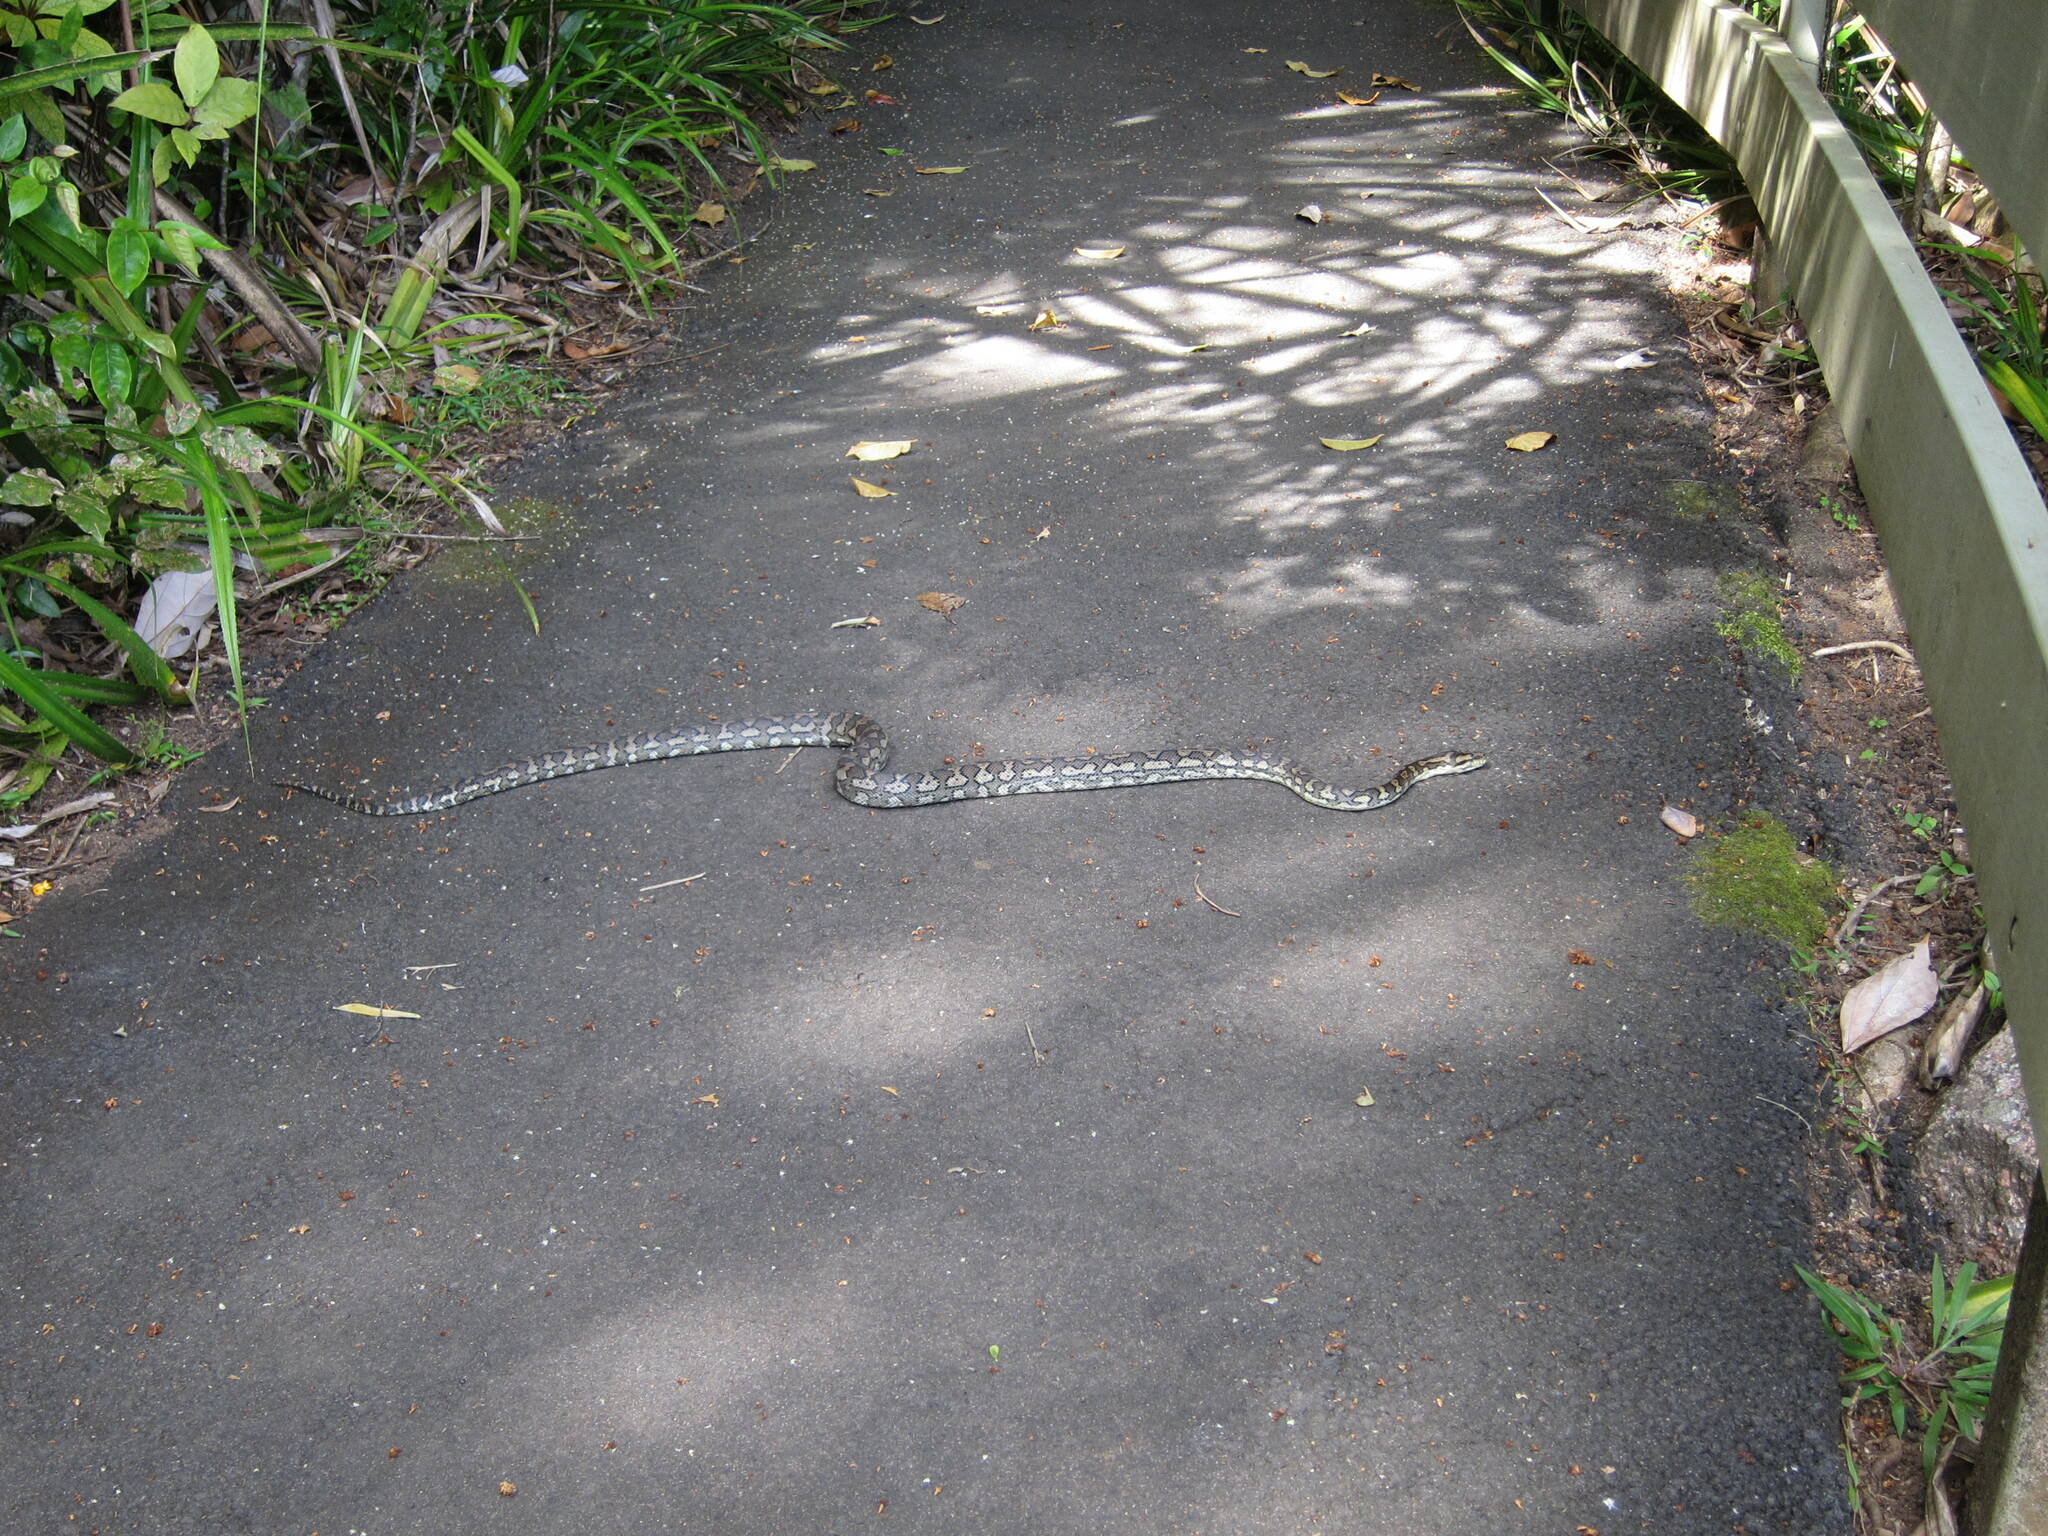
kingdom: Animalia
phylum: Chordata
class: Squamata
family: Pythonidae
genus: Morelia
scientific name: Morelia spilota
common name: Carpet python
